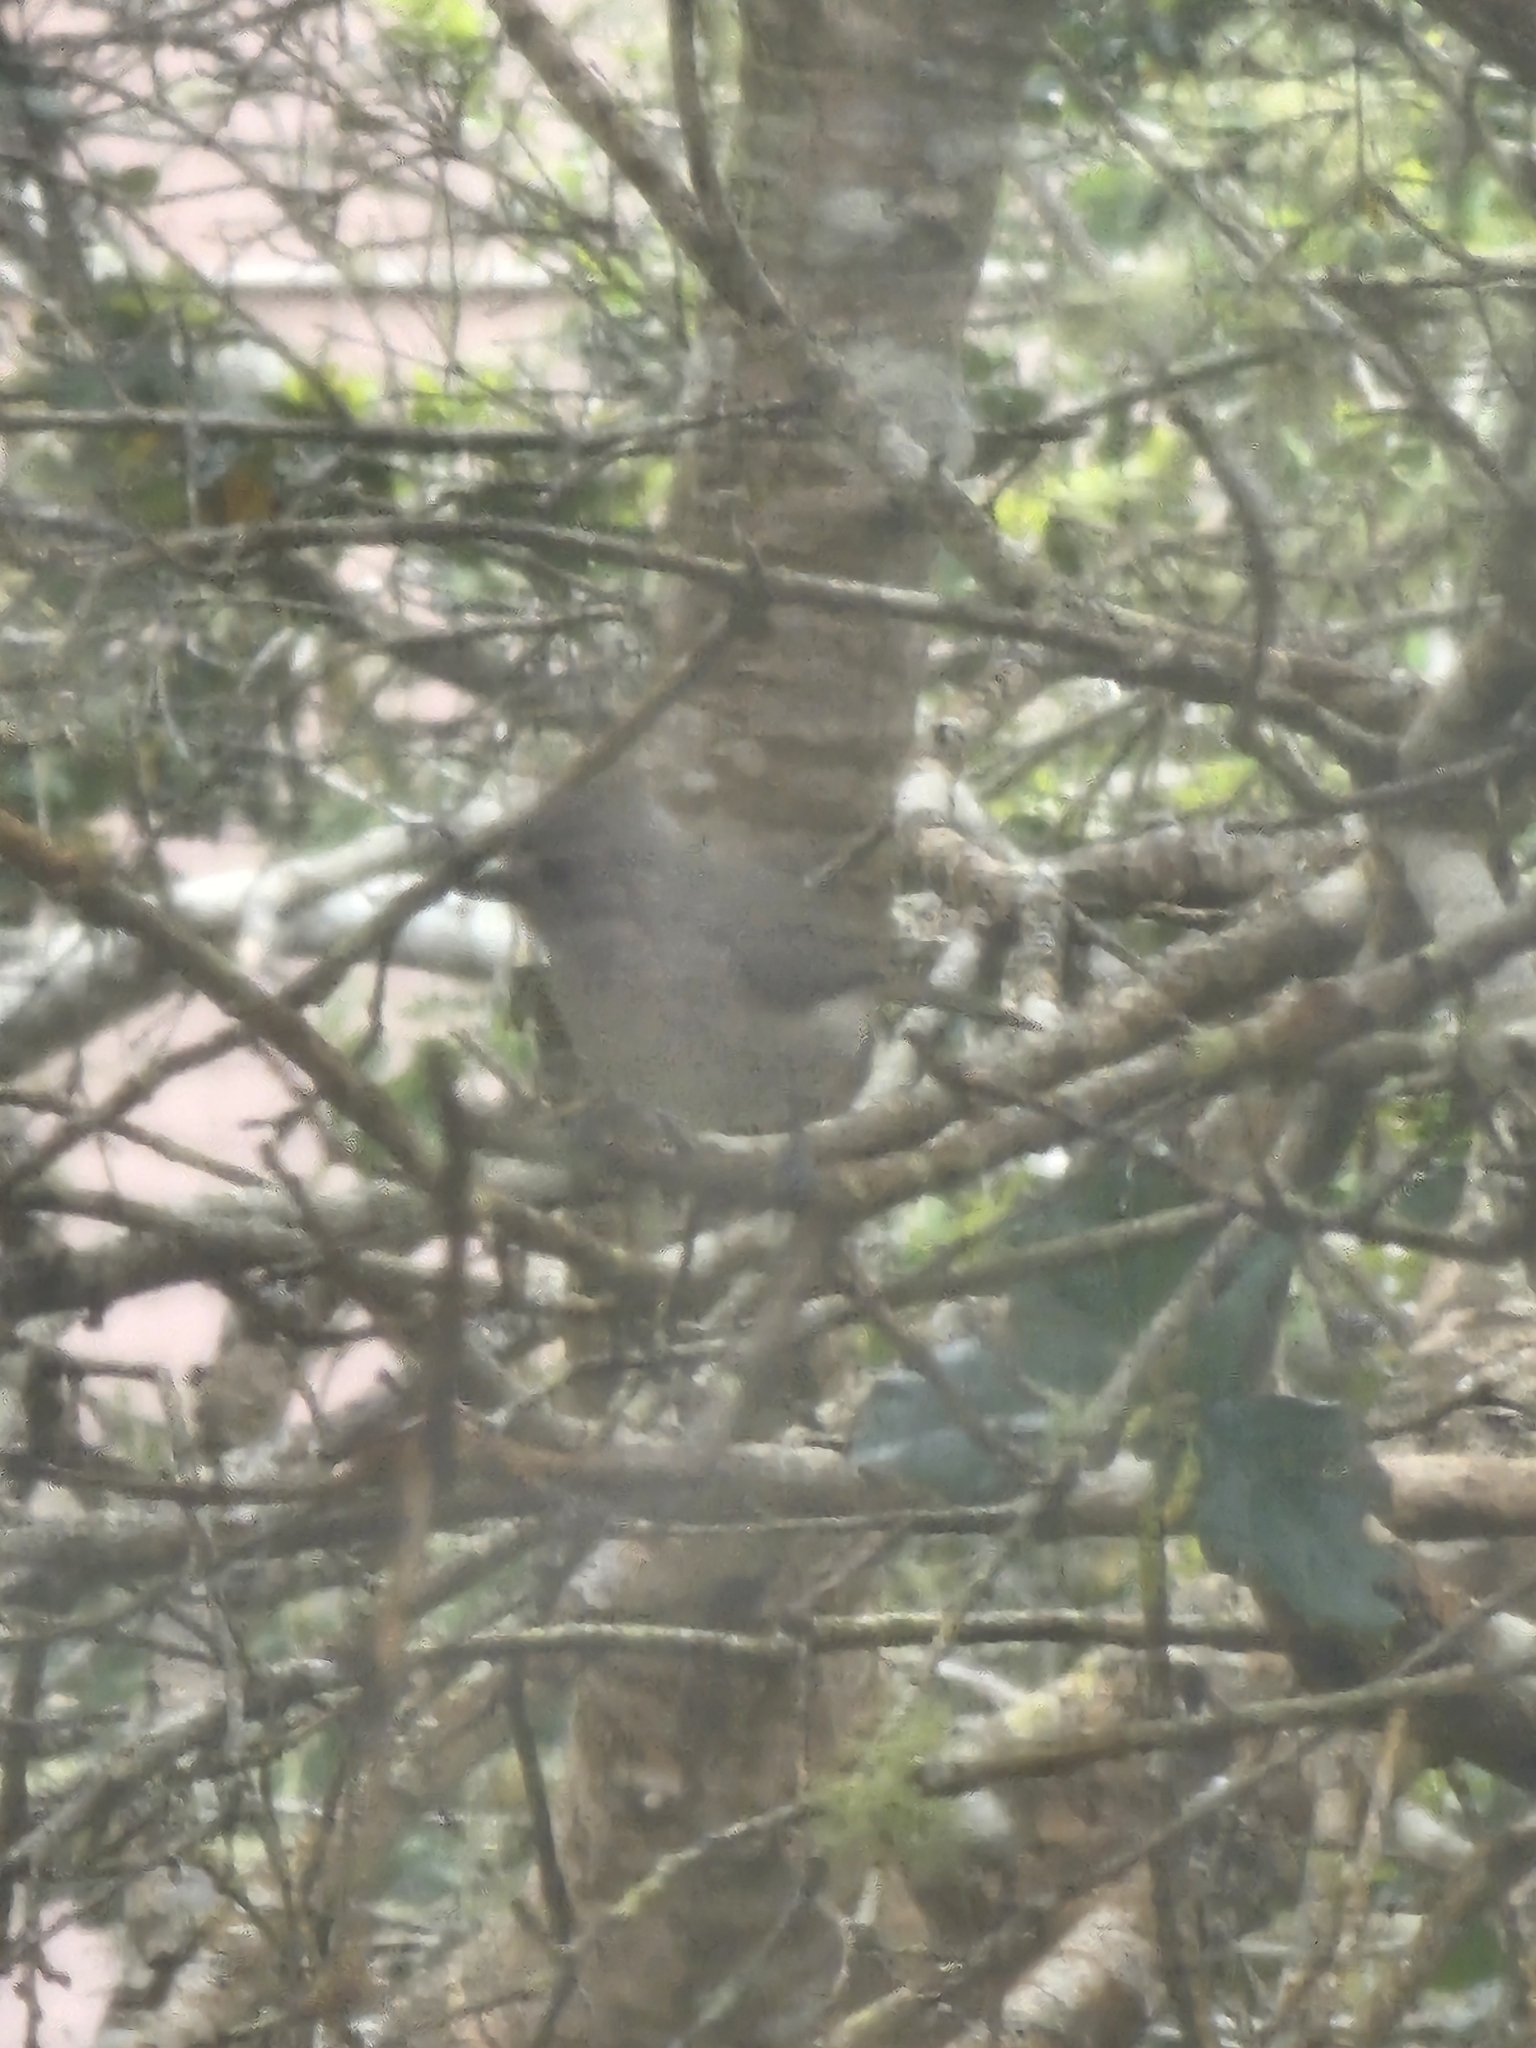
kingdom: Animalia
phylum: Chordata
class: Aves
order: Passeriformes
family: Paridae
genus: Baeolophus
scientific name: Baeolophus inornatus
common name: Oak titmouse
